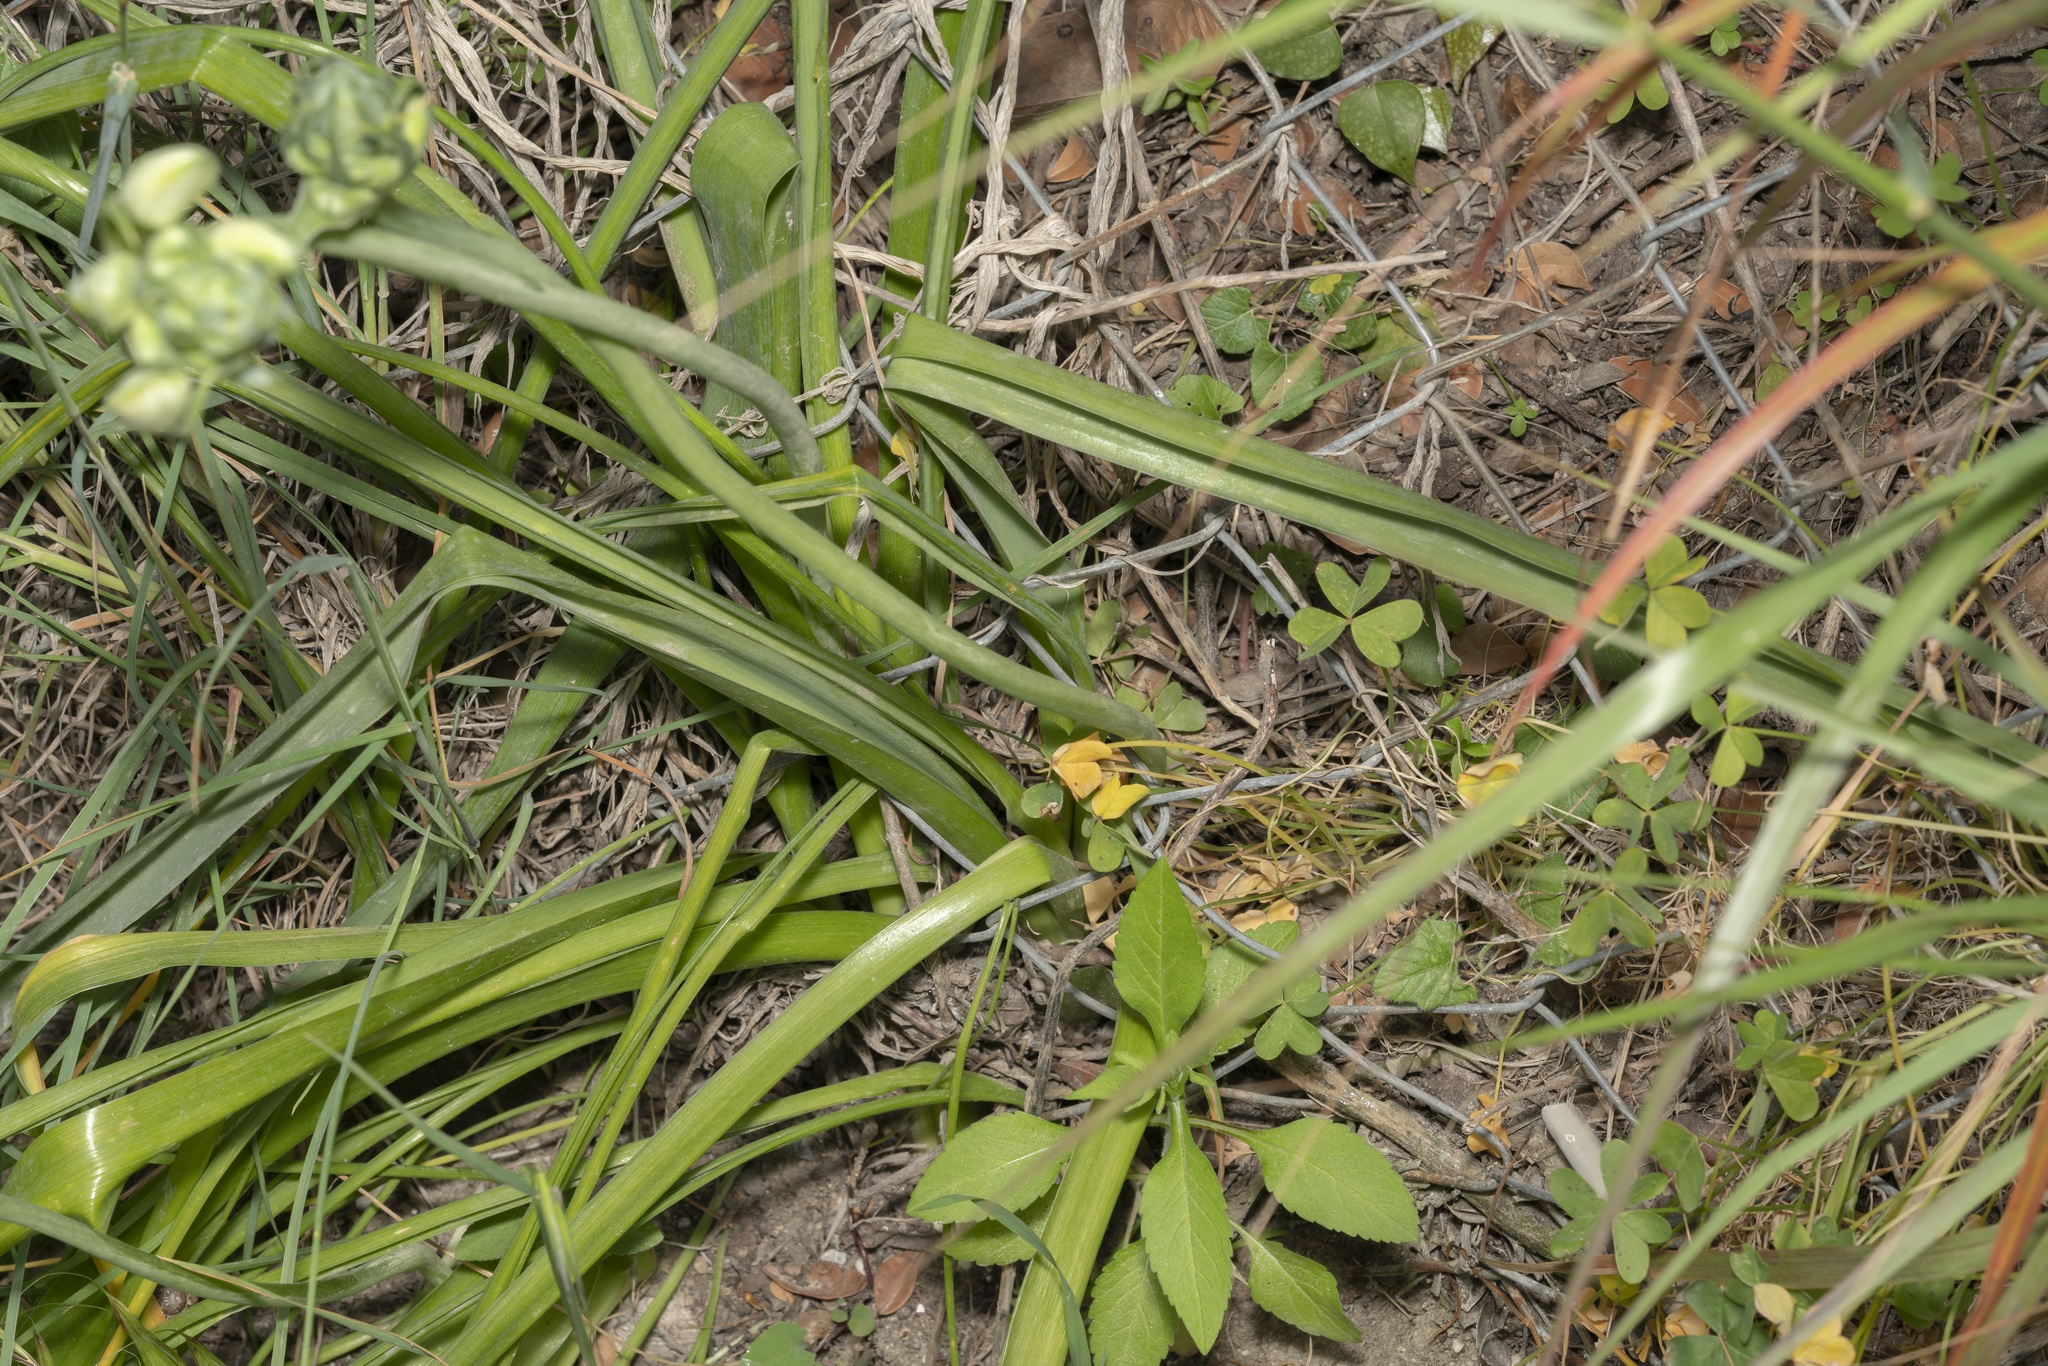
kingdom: Plantae
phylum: Tracheophyta
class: Liliopsida
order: Asparagales
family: Asparagaceae
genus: Ornithogalum
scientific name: Ornithogalum arabicum
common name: Arabian starflower
